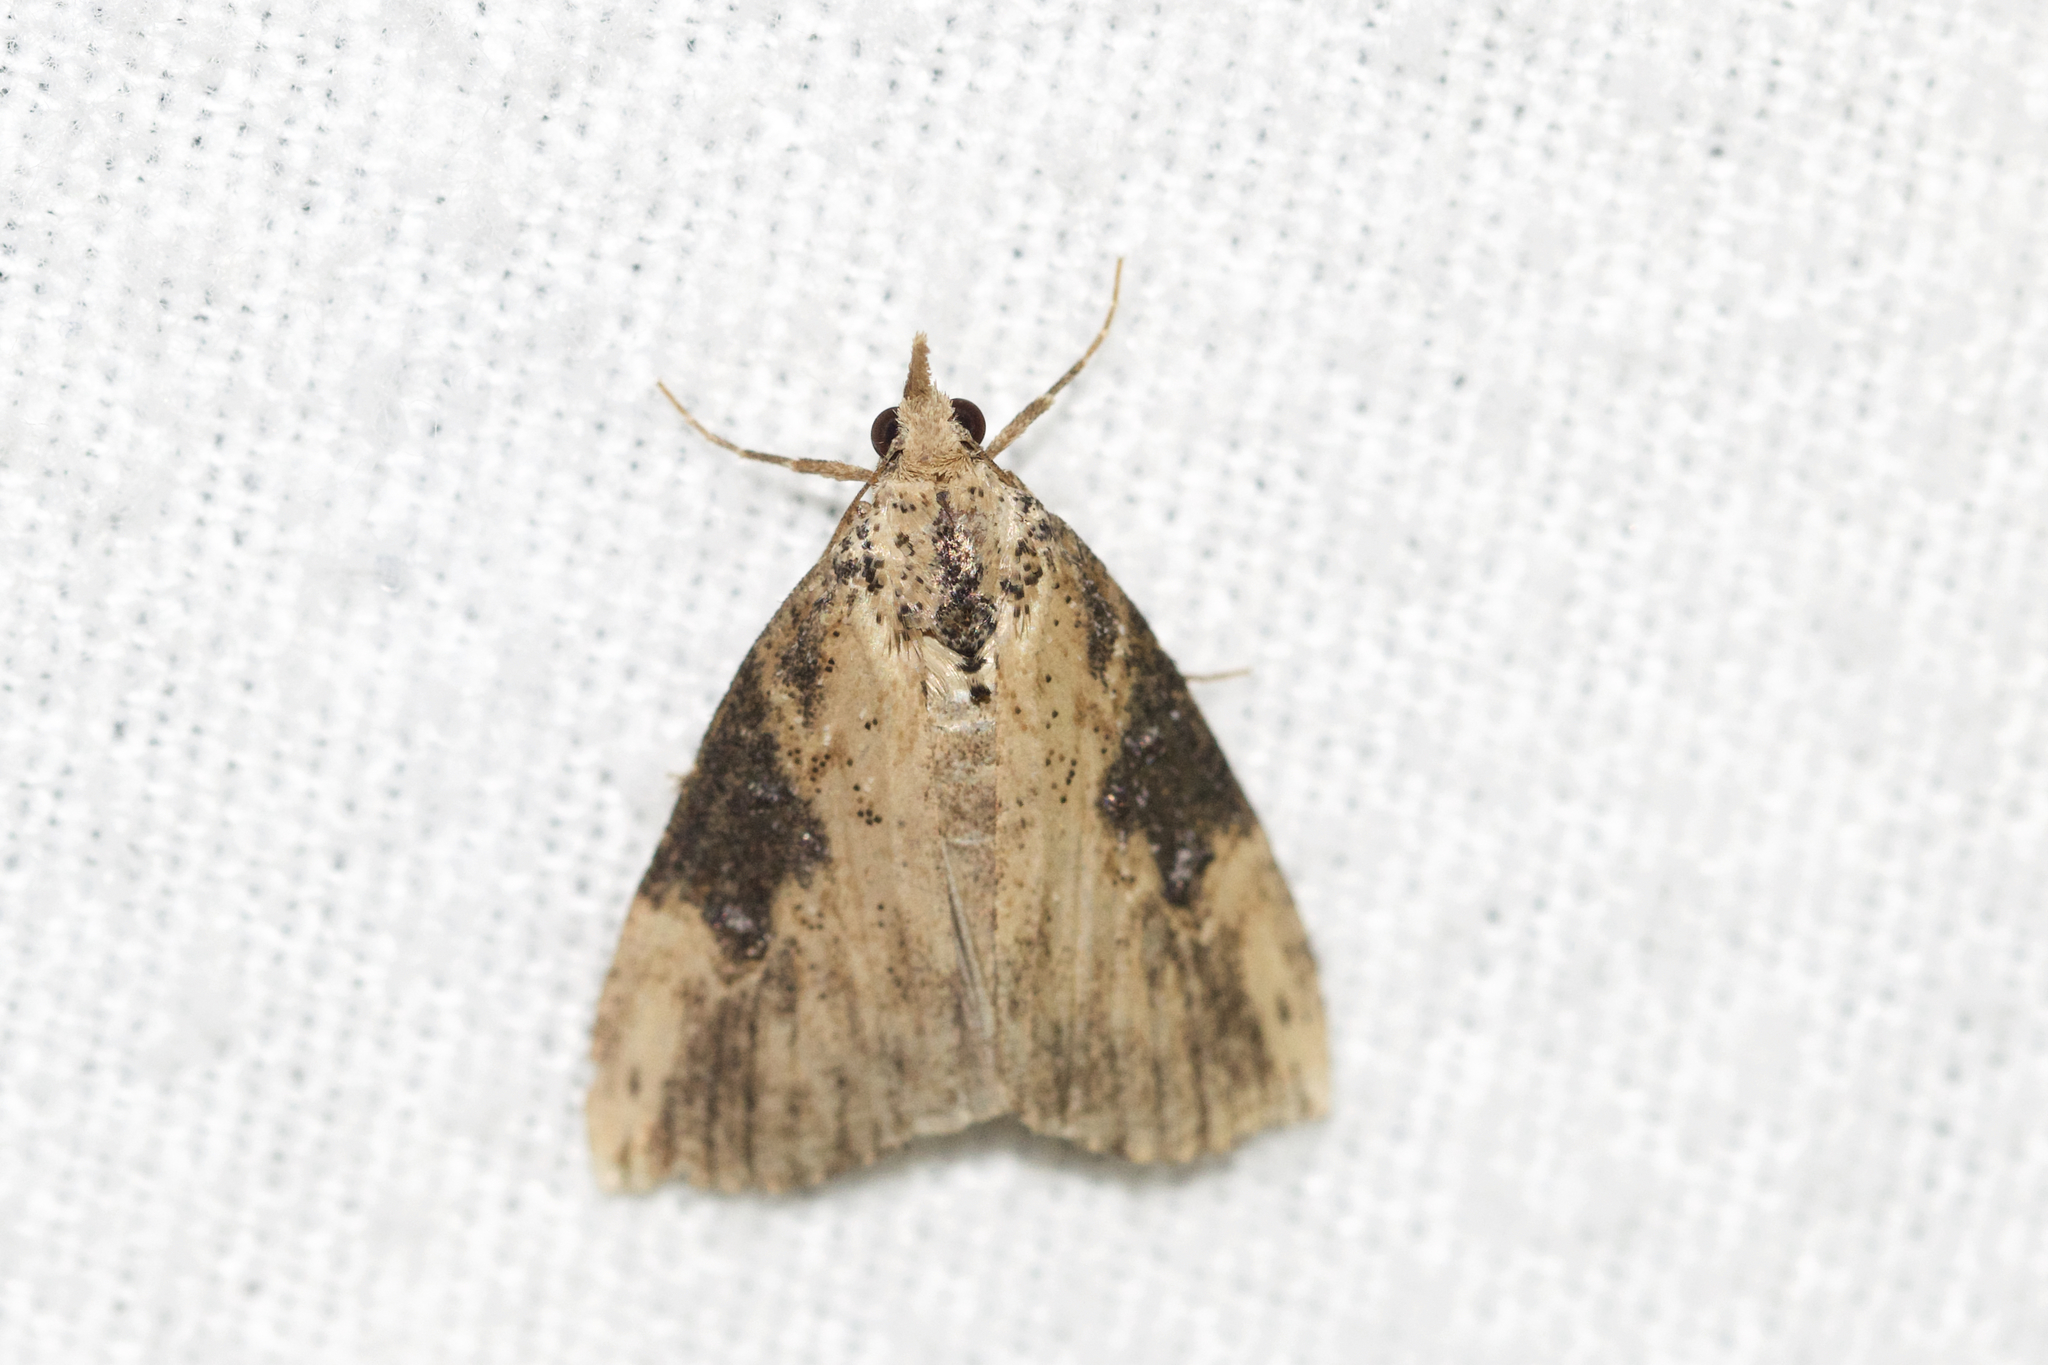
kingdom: Animalia
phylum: Arthropoda
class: Insecta
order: Lepidoptera
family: Erebidae
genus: Hypena
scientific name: Hypena humuli
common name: Hop vine snout
